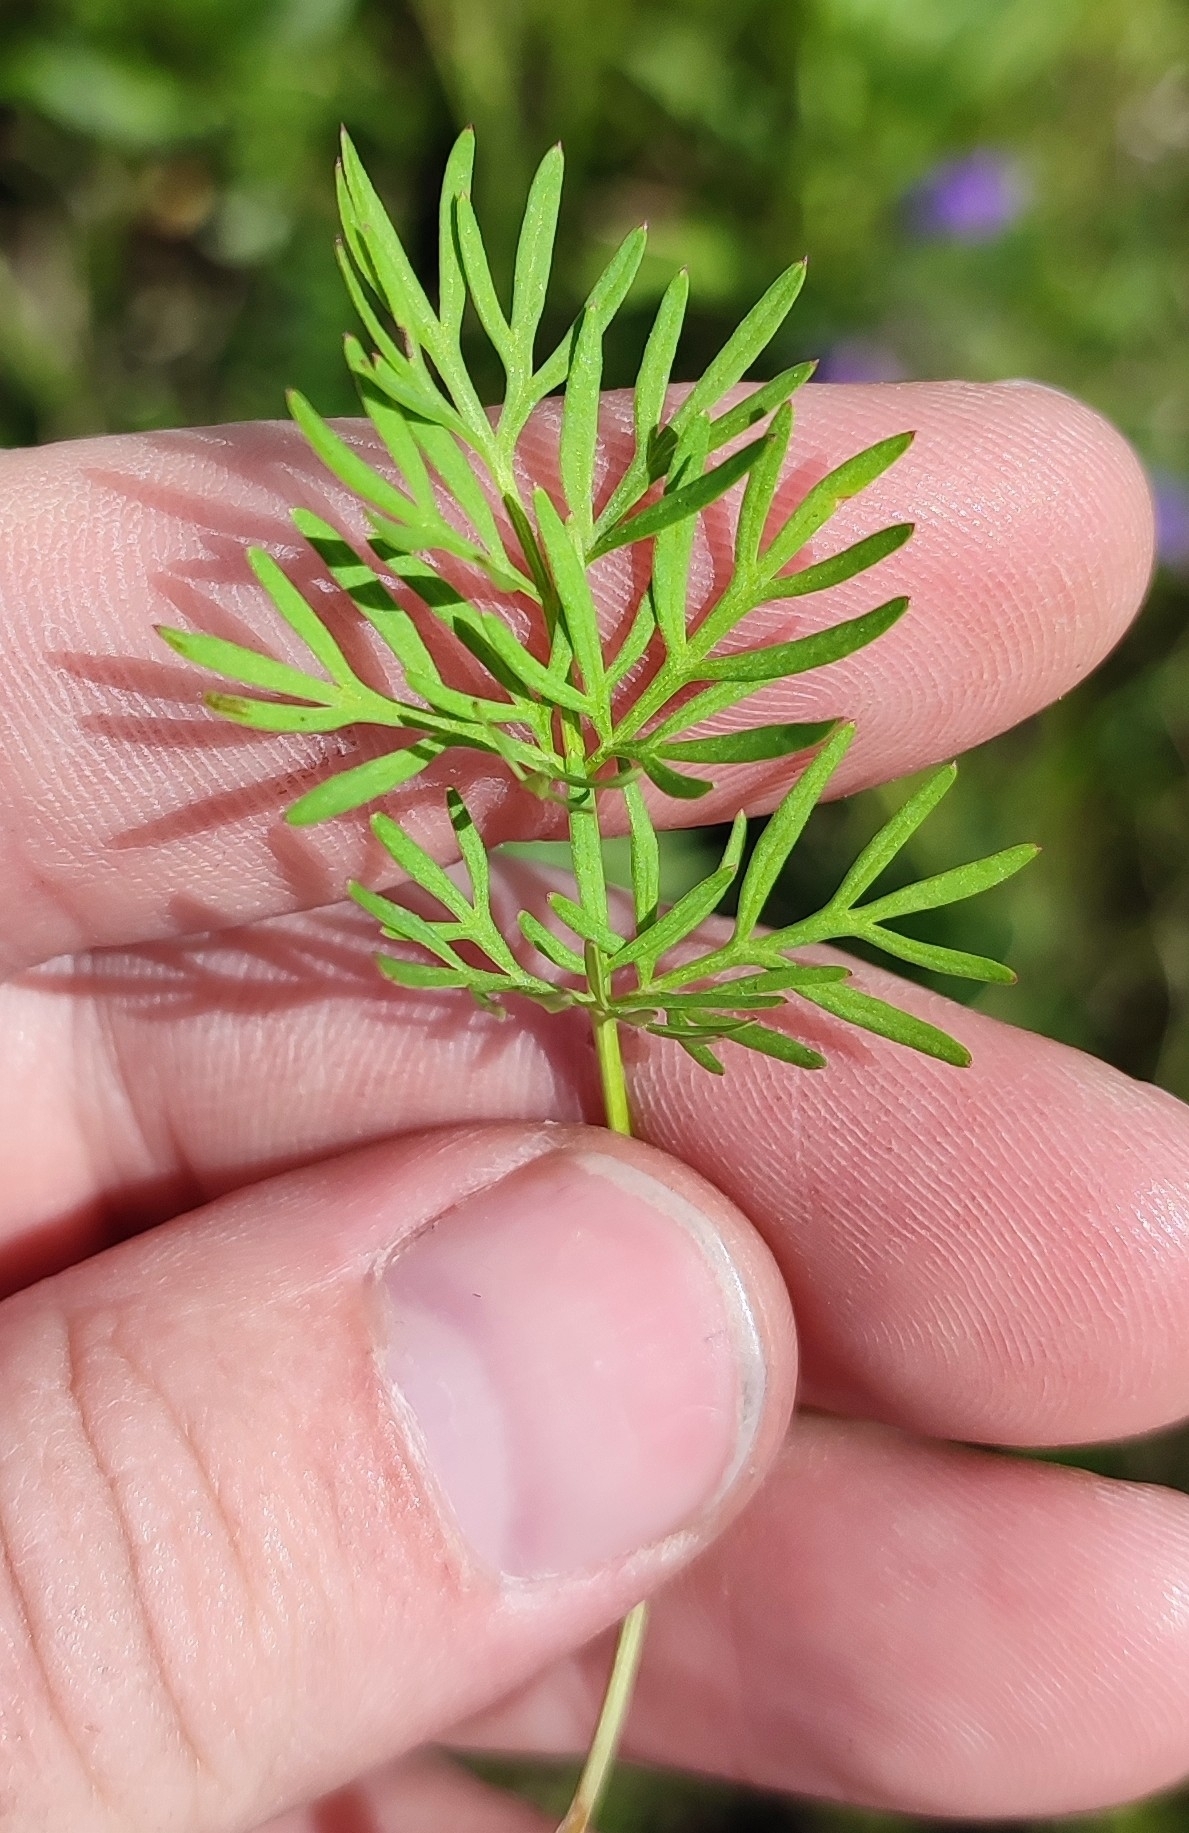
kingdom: Plantae
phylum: Tracheophyta
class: Magnoliopsida
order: Apiales
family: Apiaceae
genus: Kadenia
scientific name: Kadenia dubia
